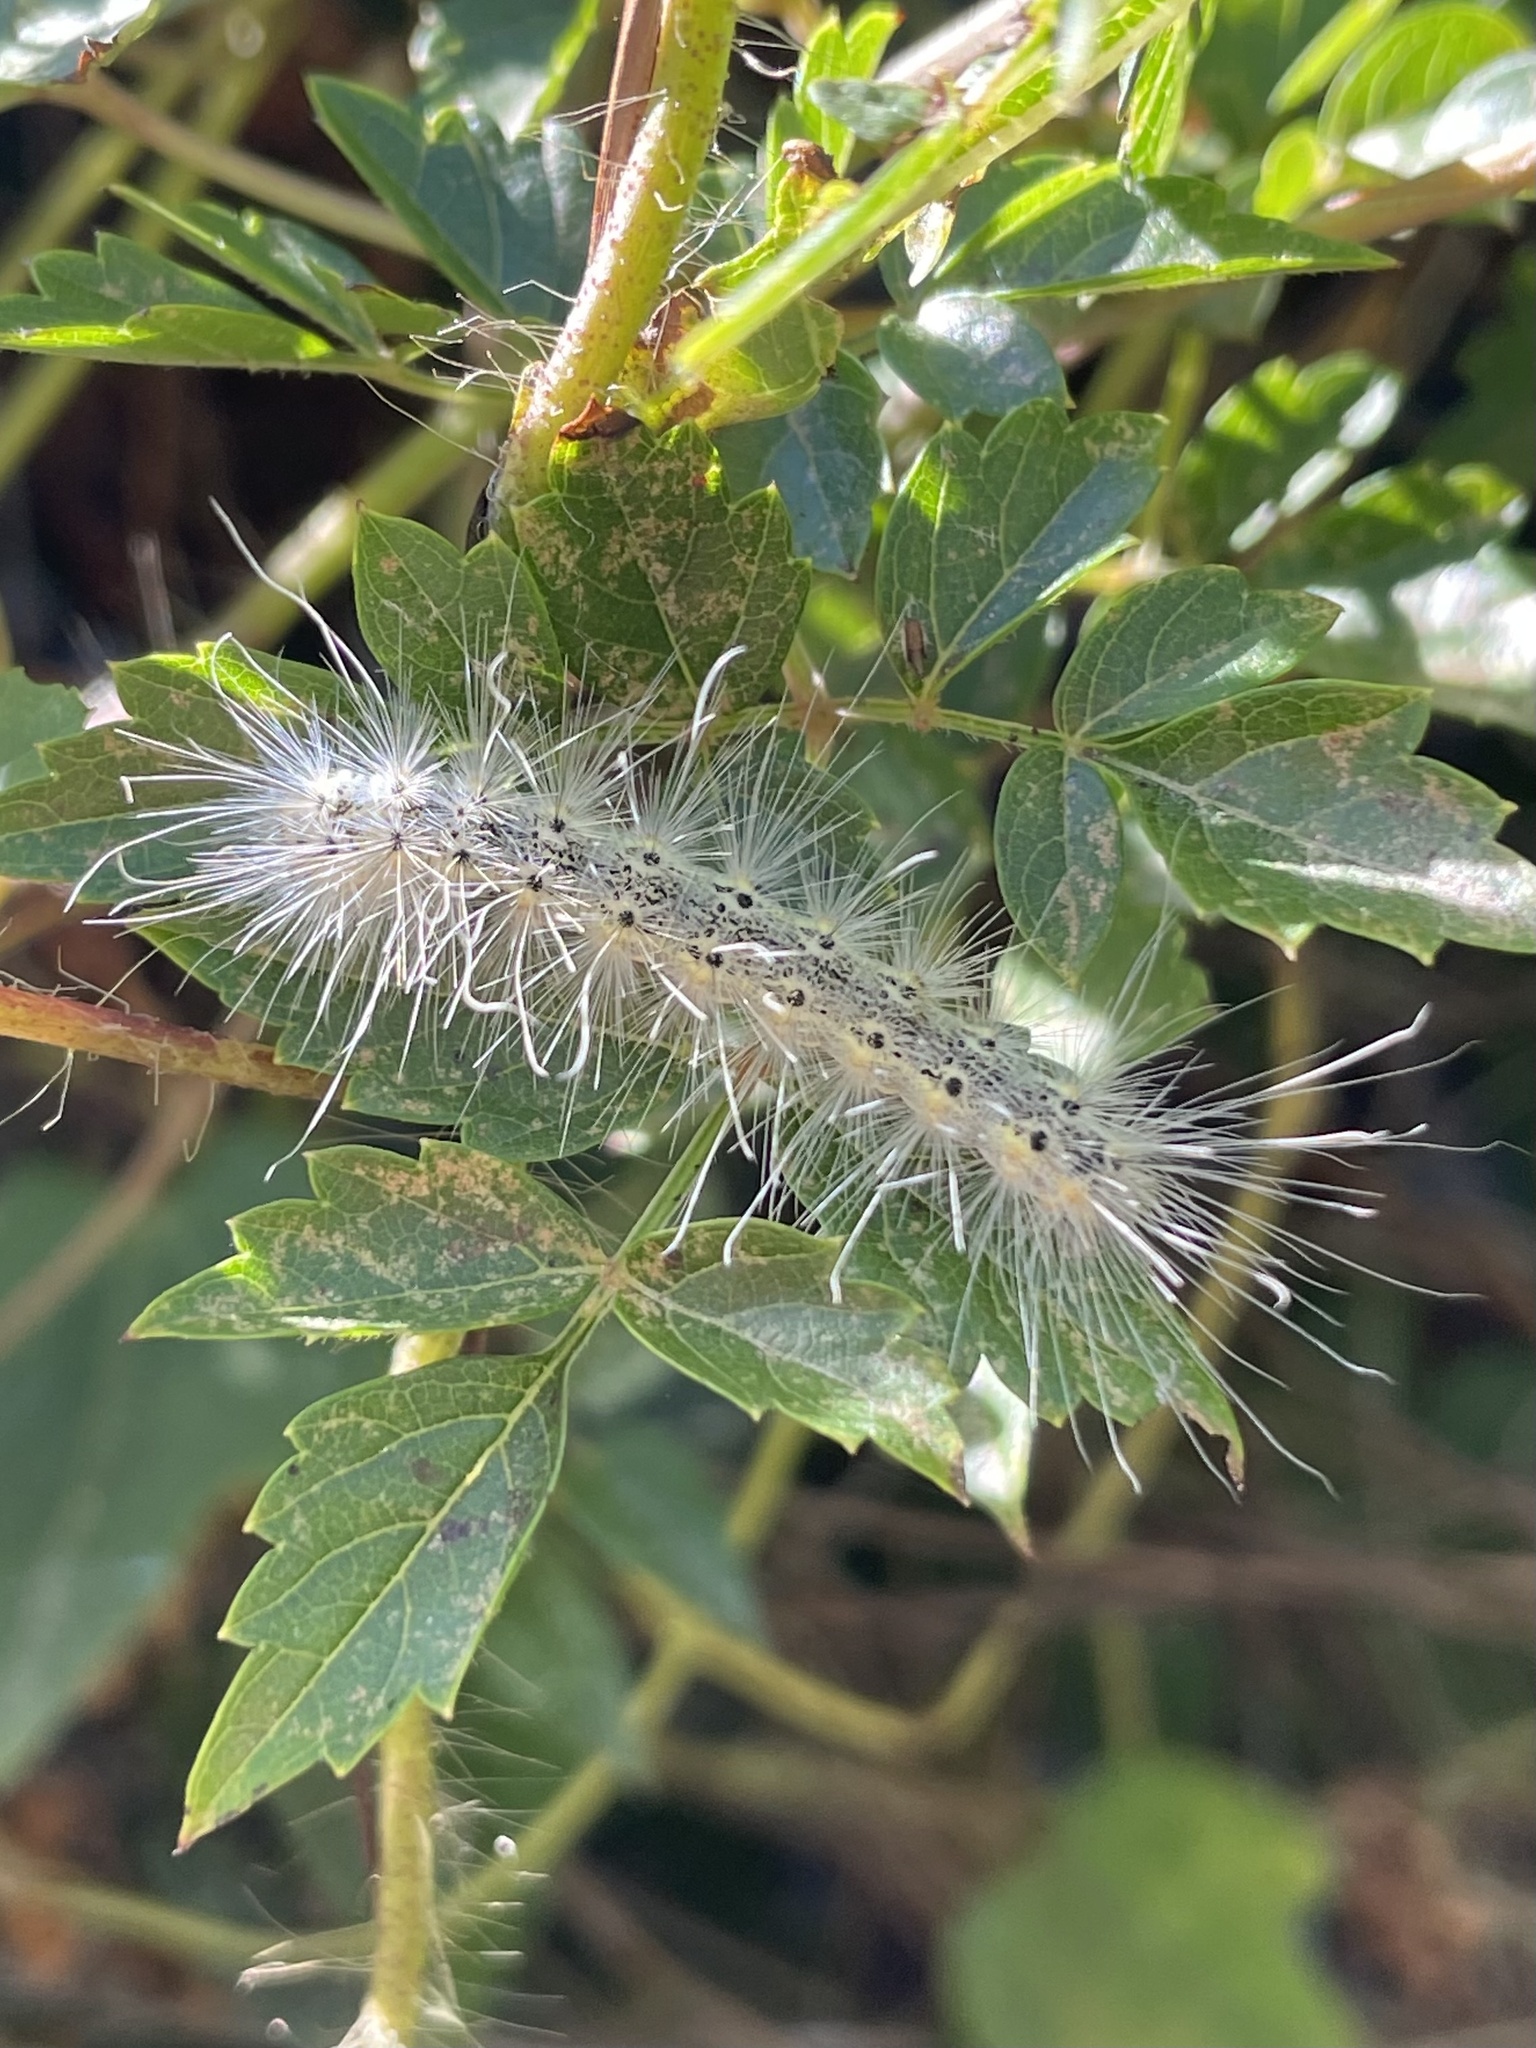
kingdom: Animalia
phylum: Arthropoda
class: Insecta
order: Lepidoptera
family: Erebidae
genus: Hyphantria
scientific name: Hyphantria cunea
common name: American white moth
